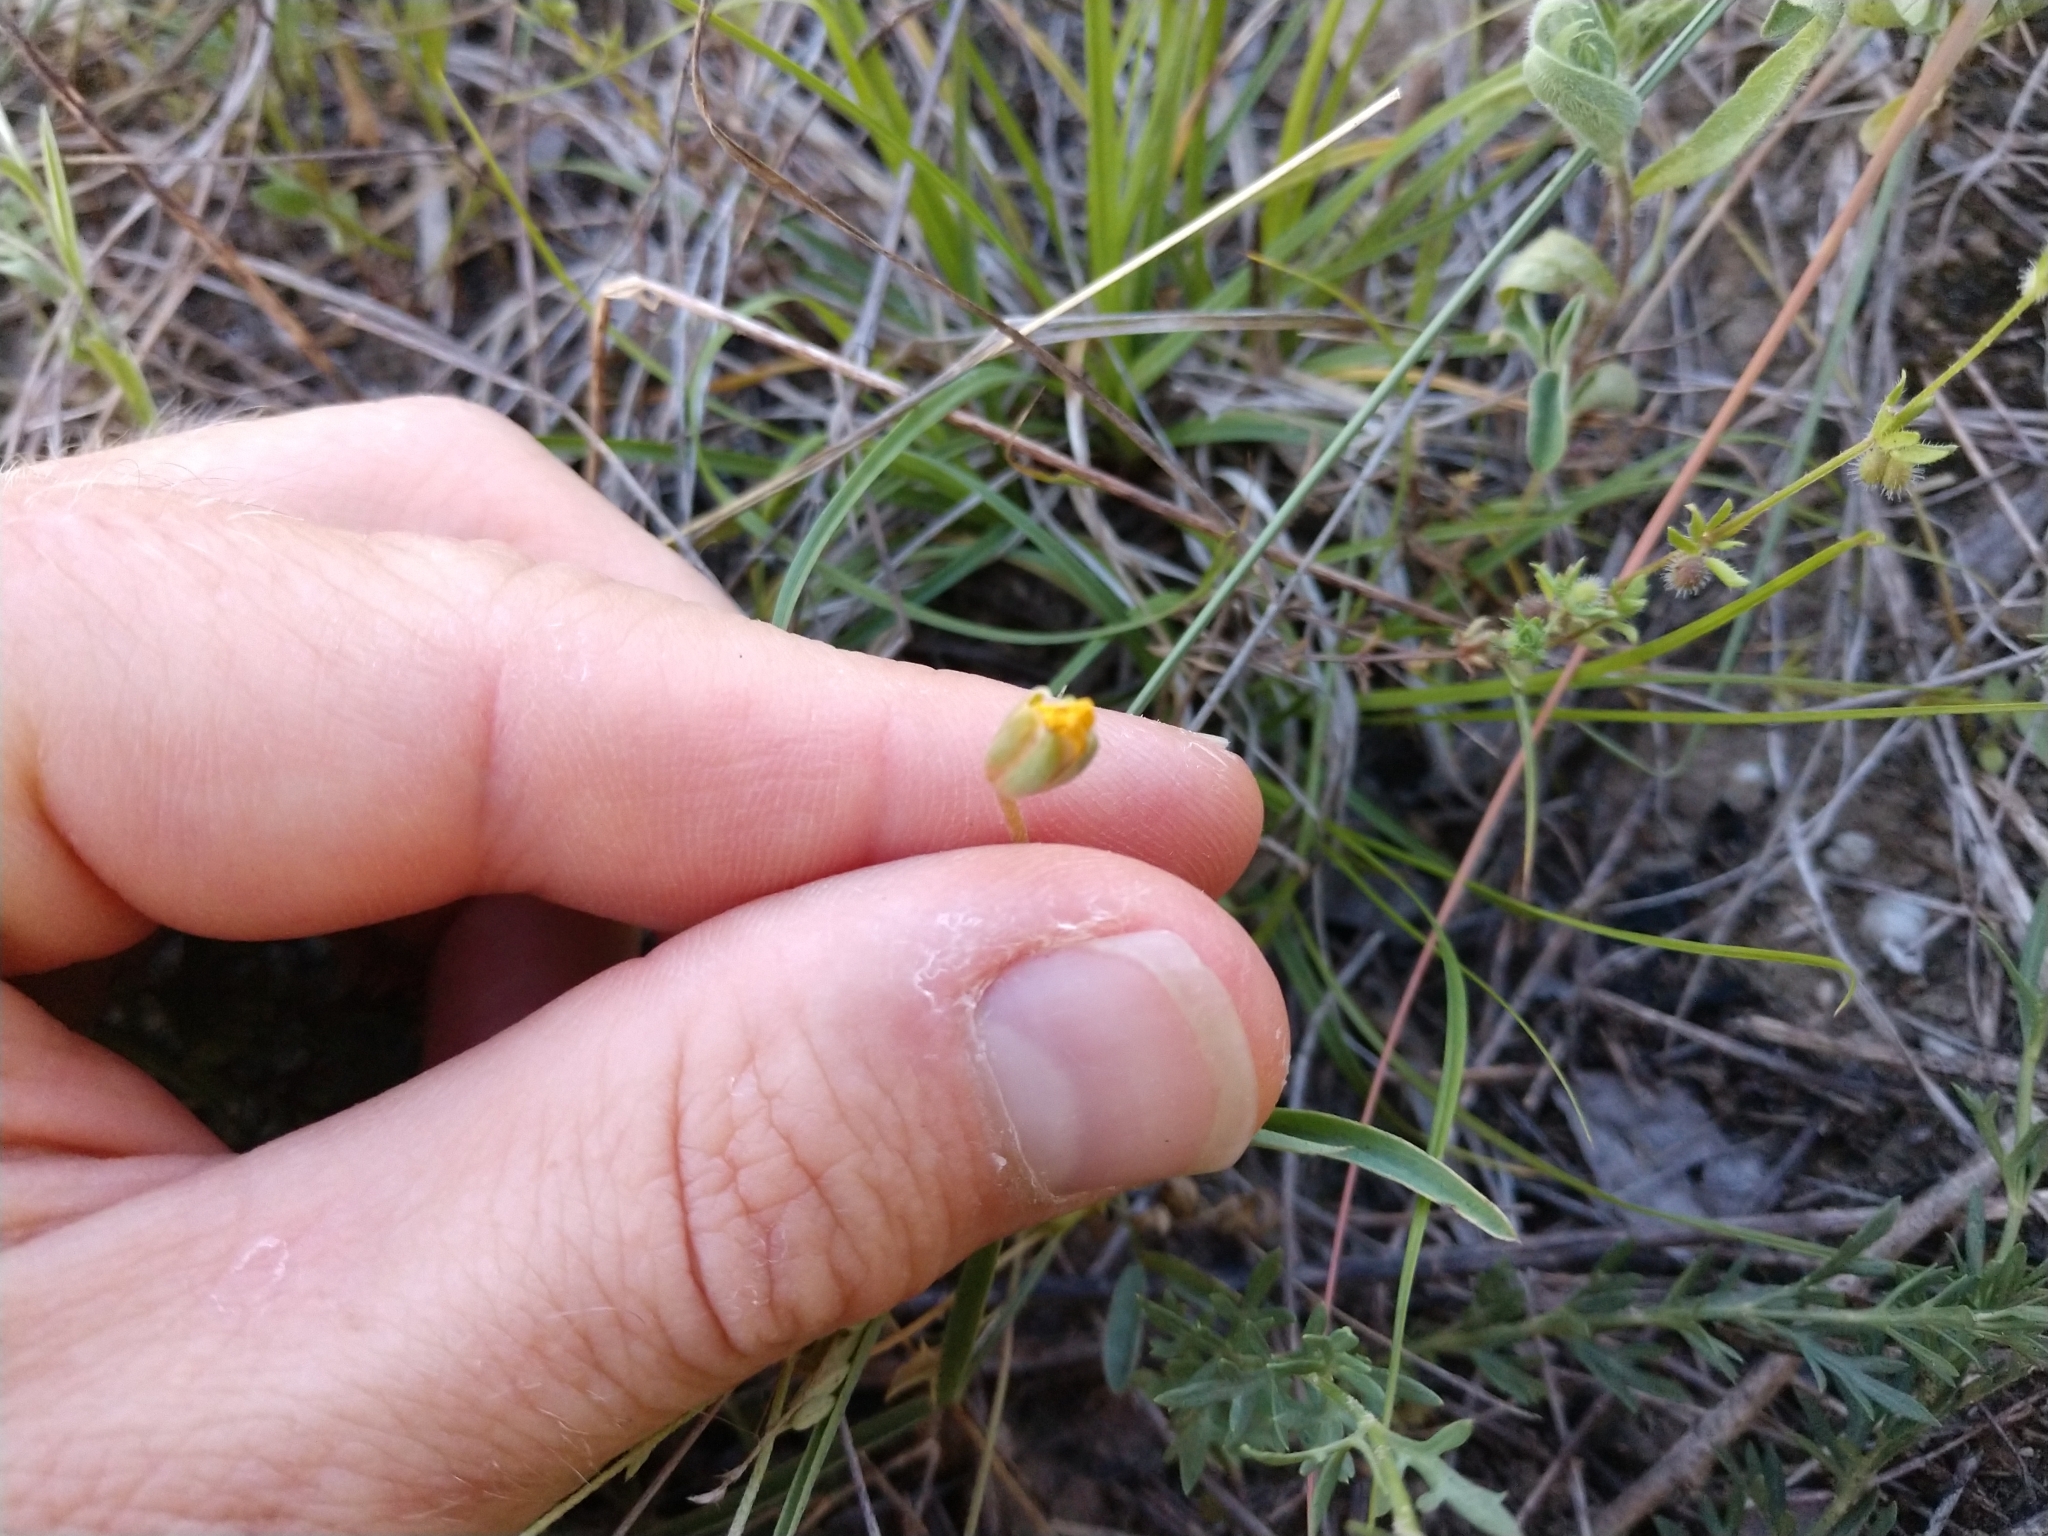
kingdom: Plantae
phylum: Tracheophyta
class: Magnoliopsida
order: Fabales
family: Fabaceae
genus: Senna
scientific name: Senna pumilio
